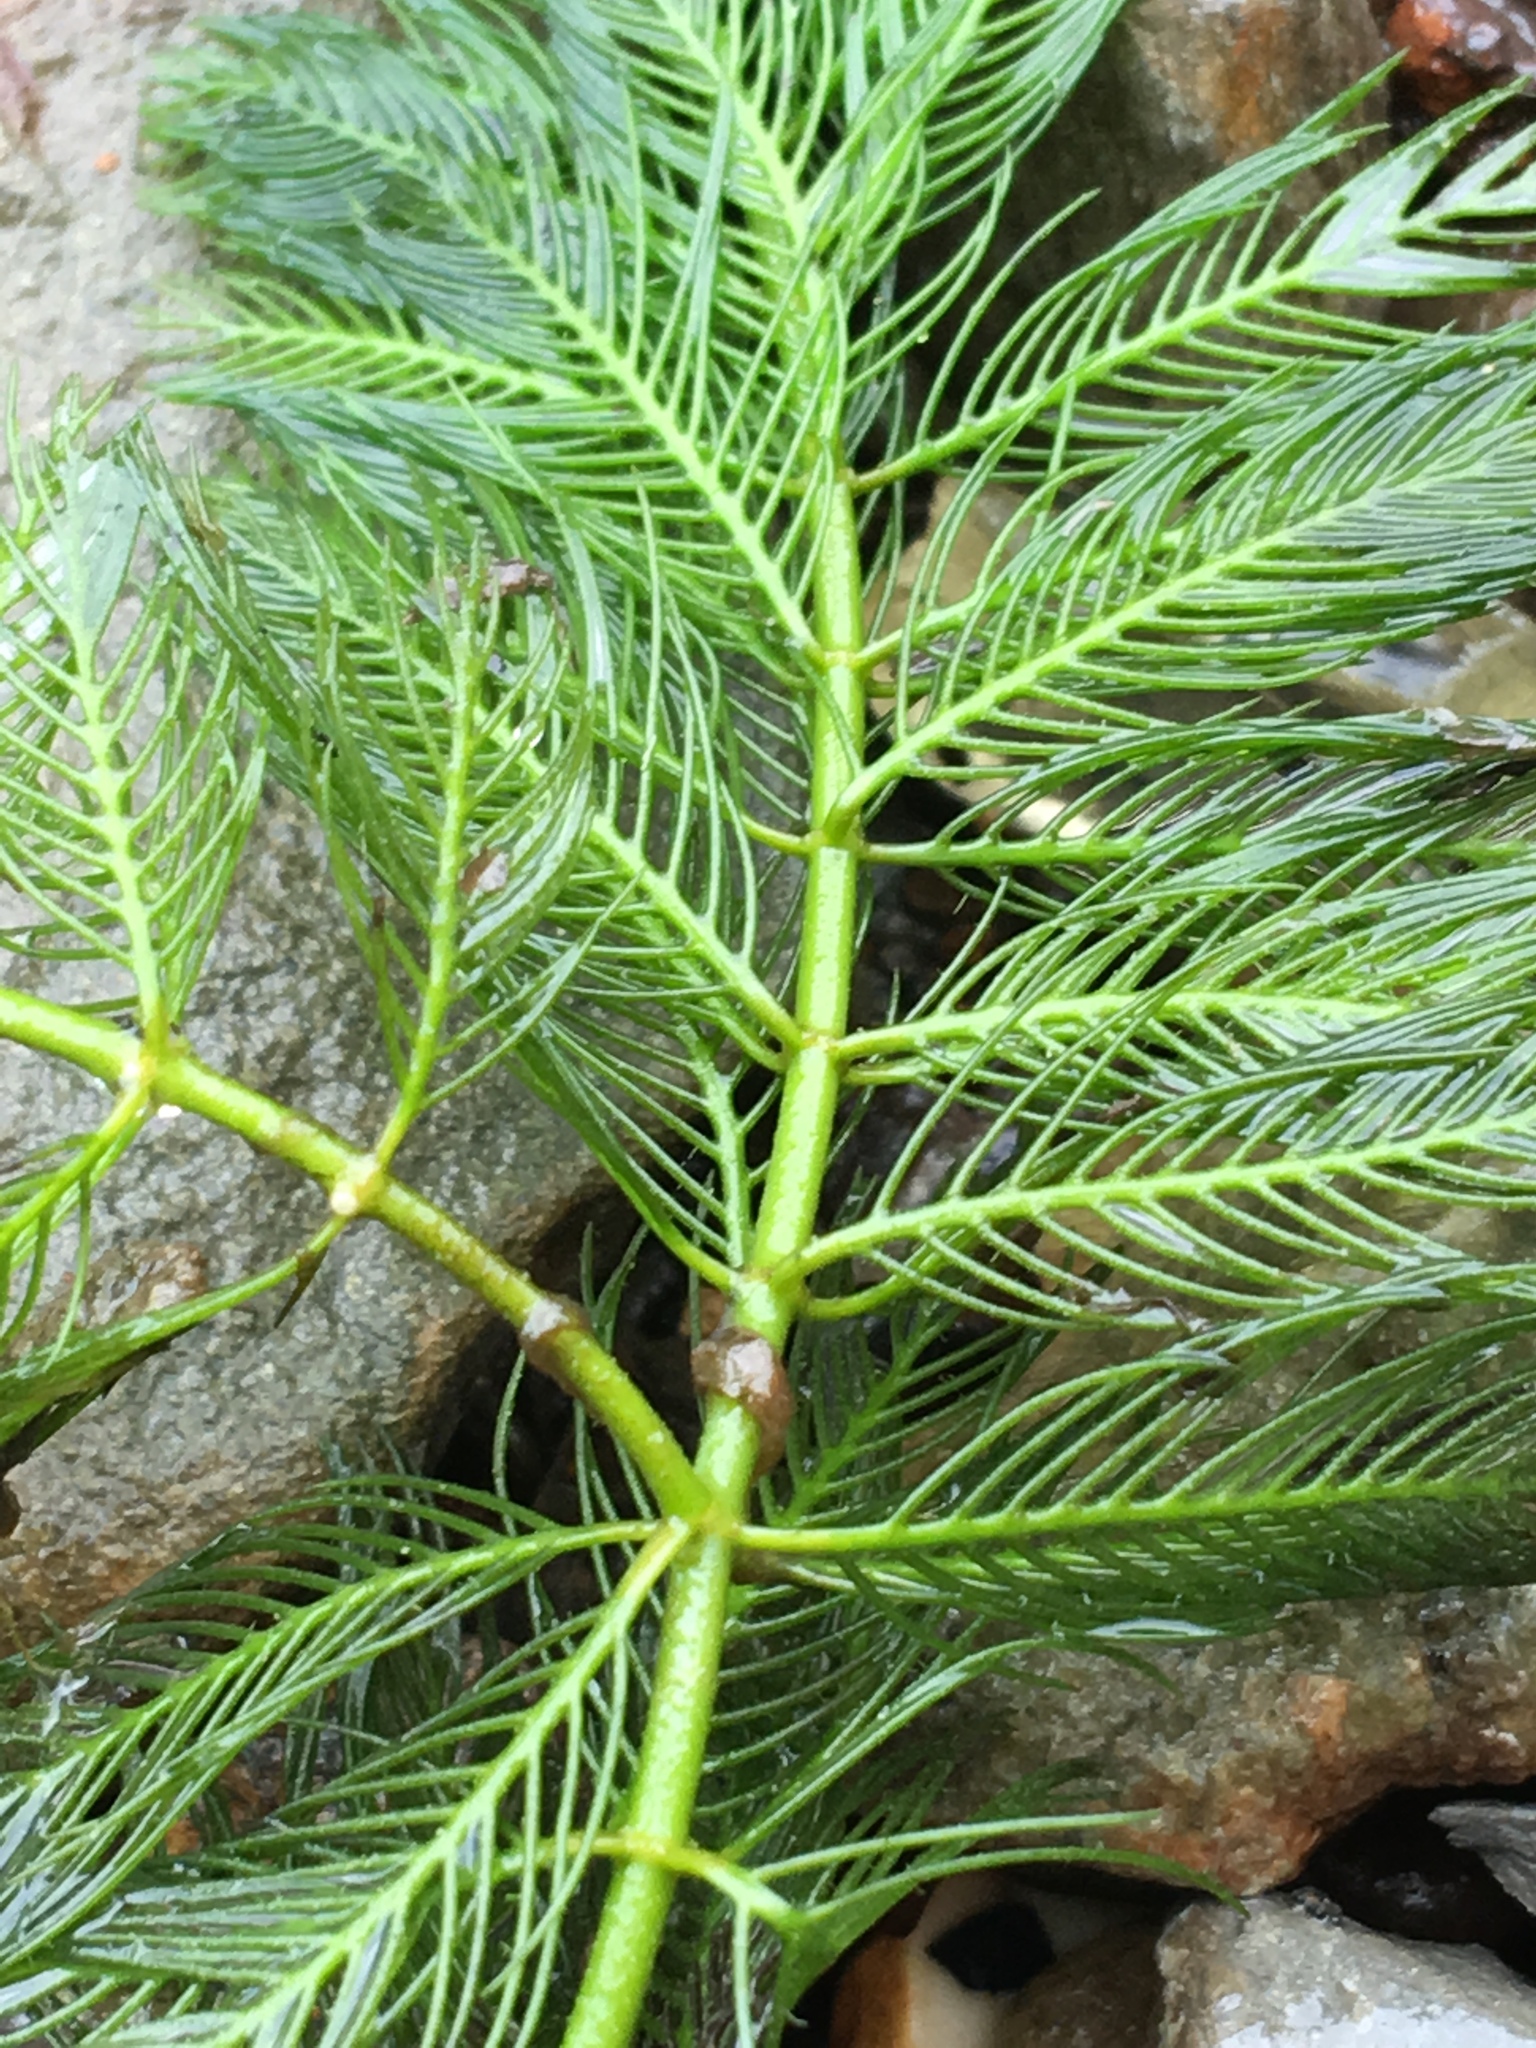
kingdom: Plantae
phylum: Tracheophyta
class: Magnoliopsida
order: Saxifragales
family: Haloragaceae
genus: Myriophyllum
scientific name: Myriophyllum spicatum
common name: Spiked water-milfoil
